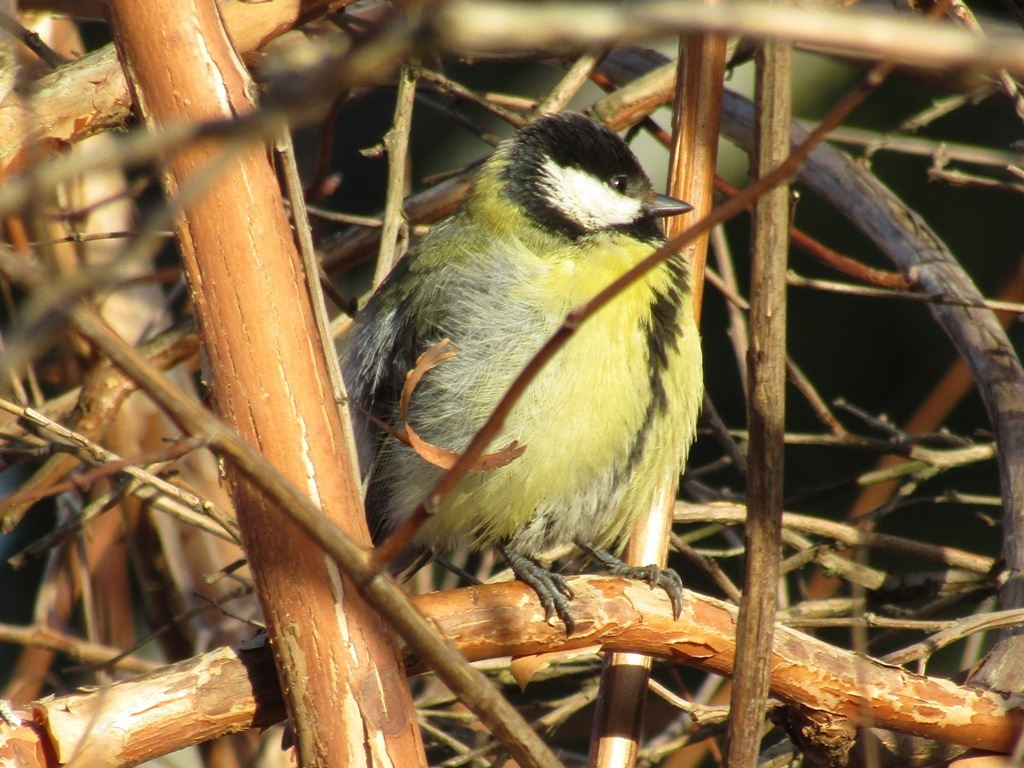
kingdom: Animalia
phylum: Chordata
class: Aves
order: Passeriformes
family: Paridae
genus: Parus
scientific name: Parus major
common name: Great tit
